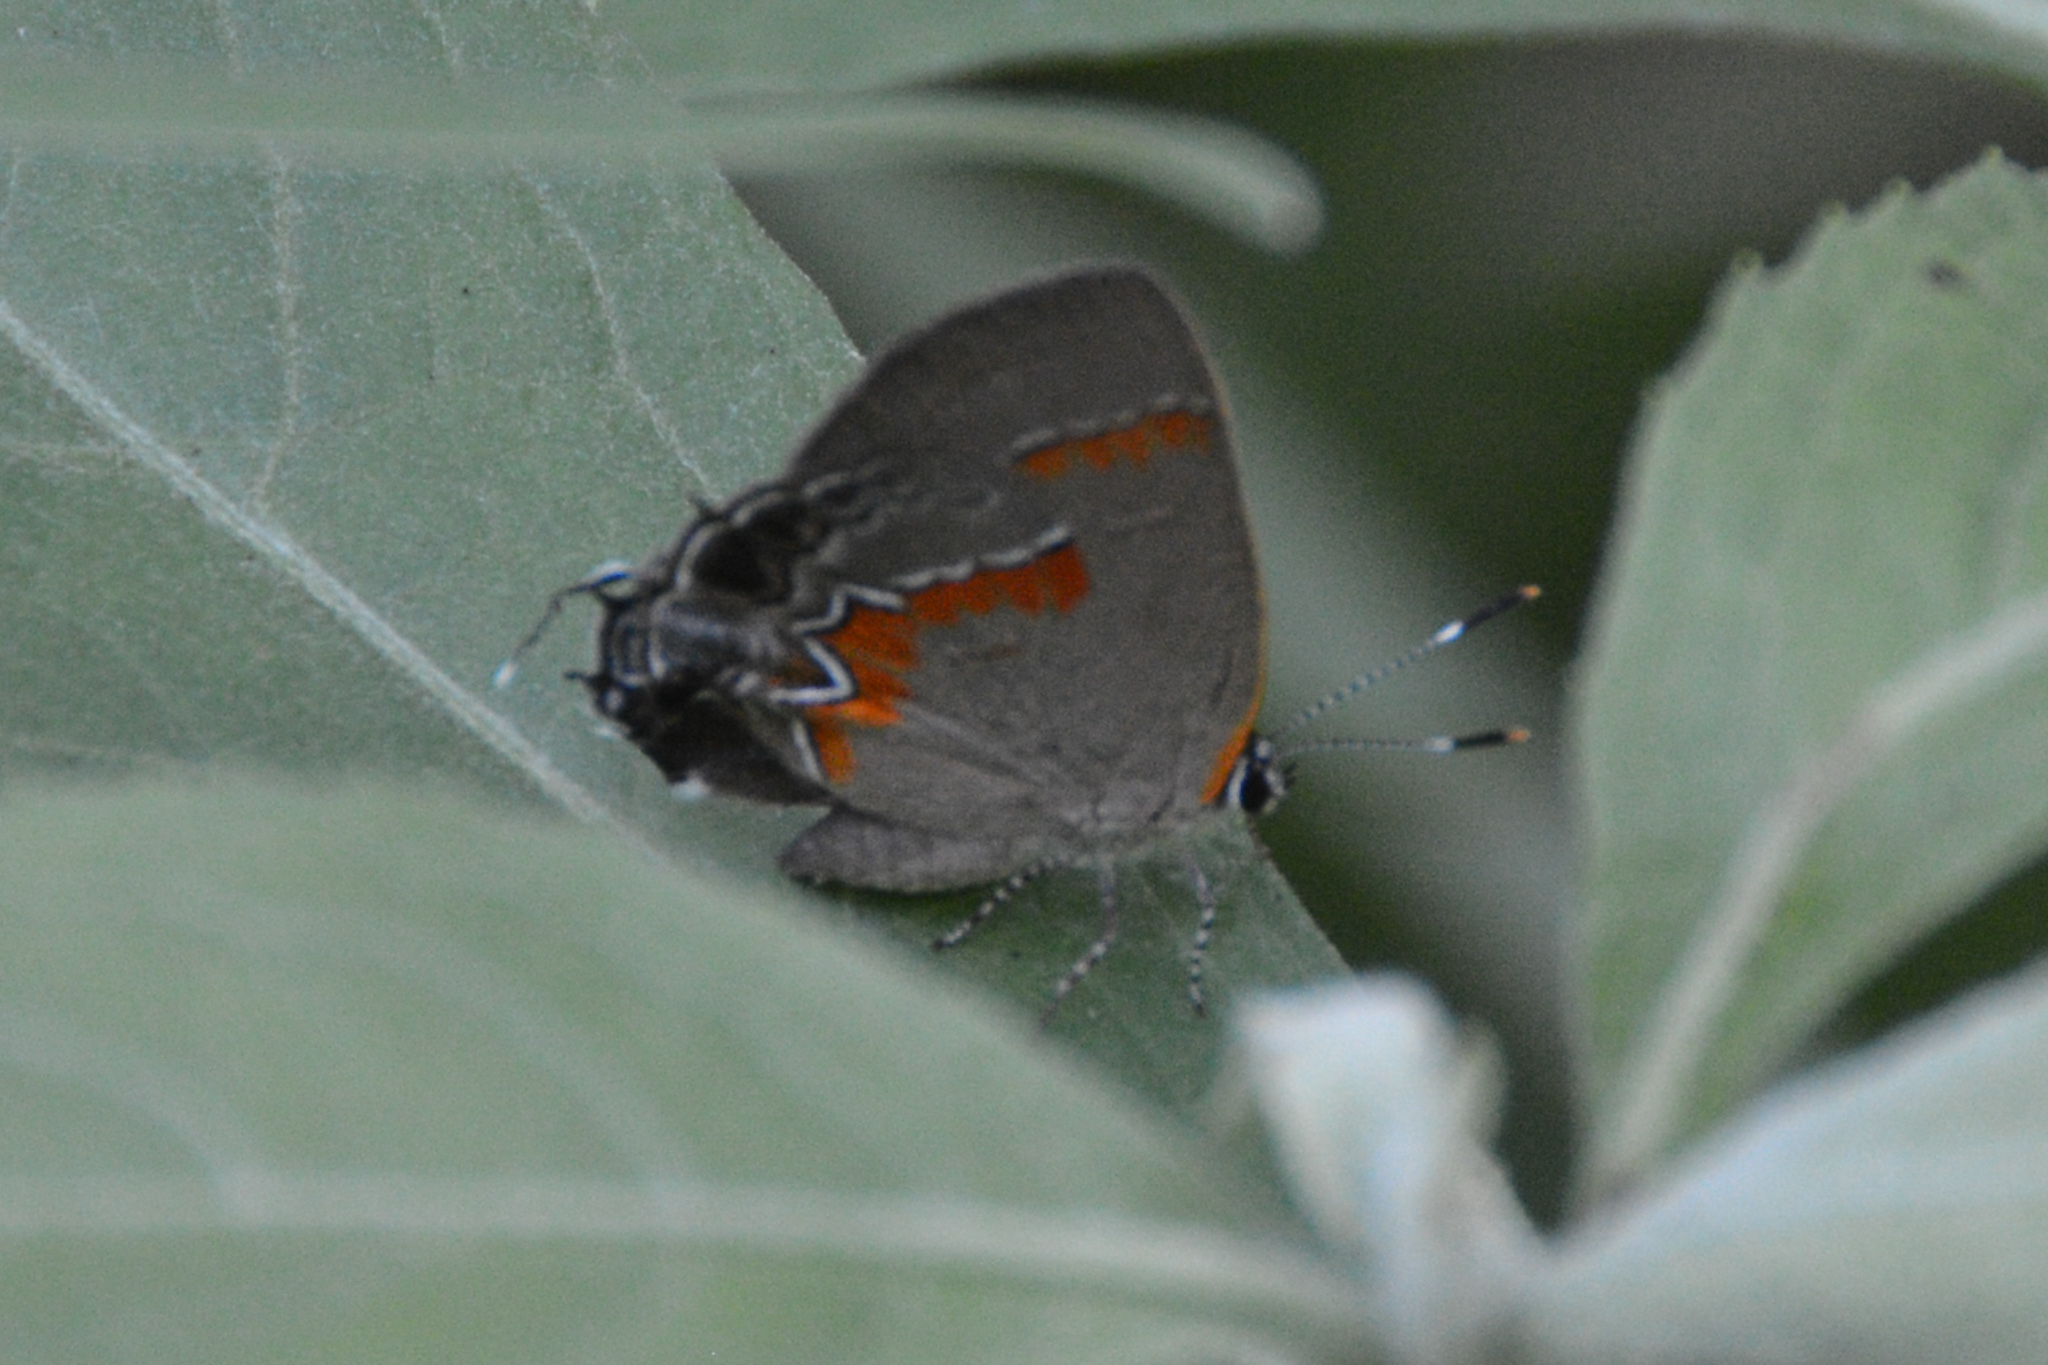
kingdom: Animalia
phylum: Arthropoda
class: Insecta
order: Lepidoptera
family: Lycaenidae
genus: Calycopis
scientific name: Calycopis cecrops
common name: Red-banded hairstreak
